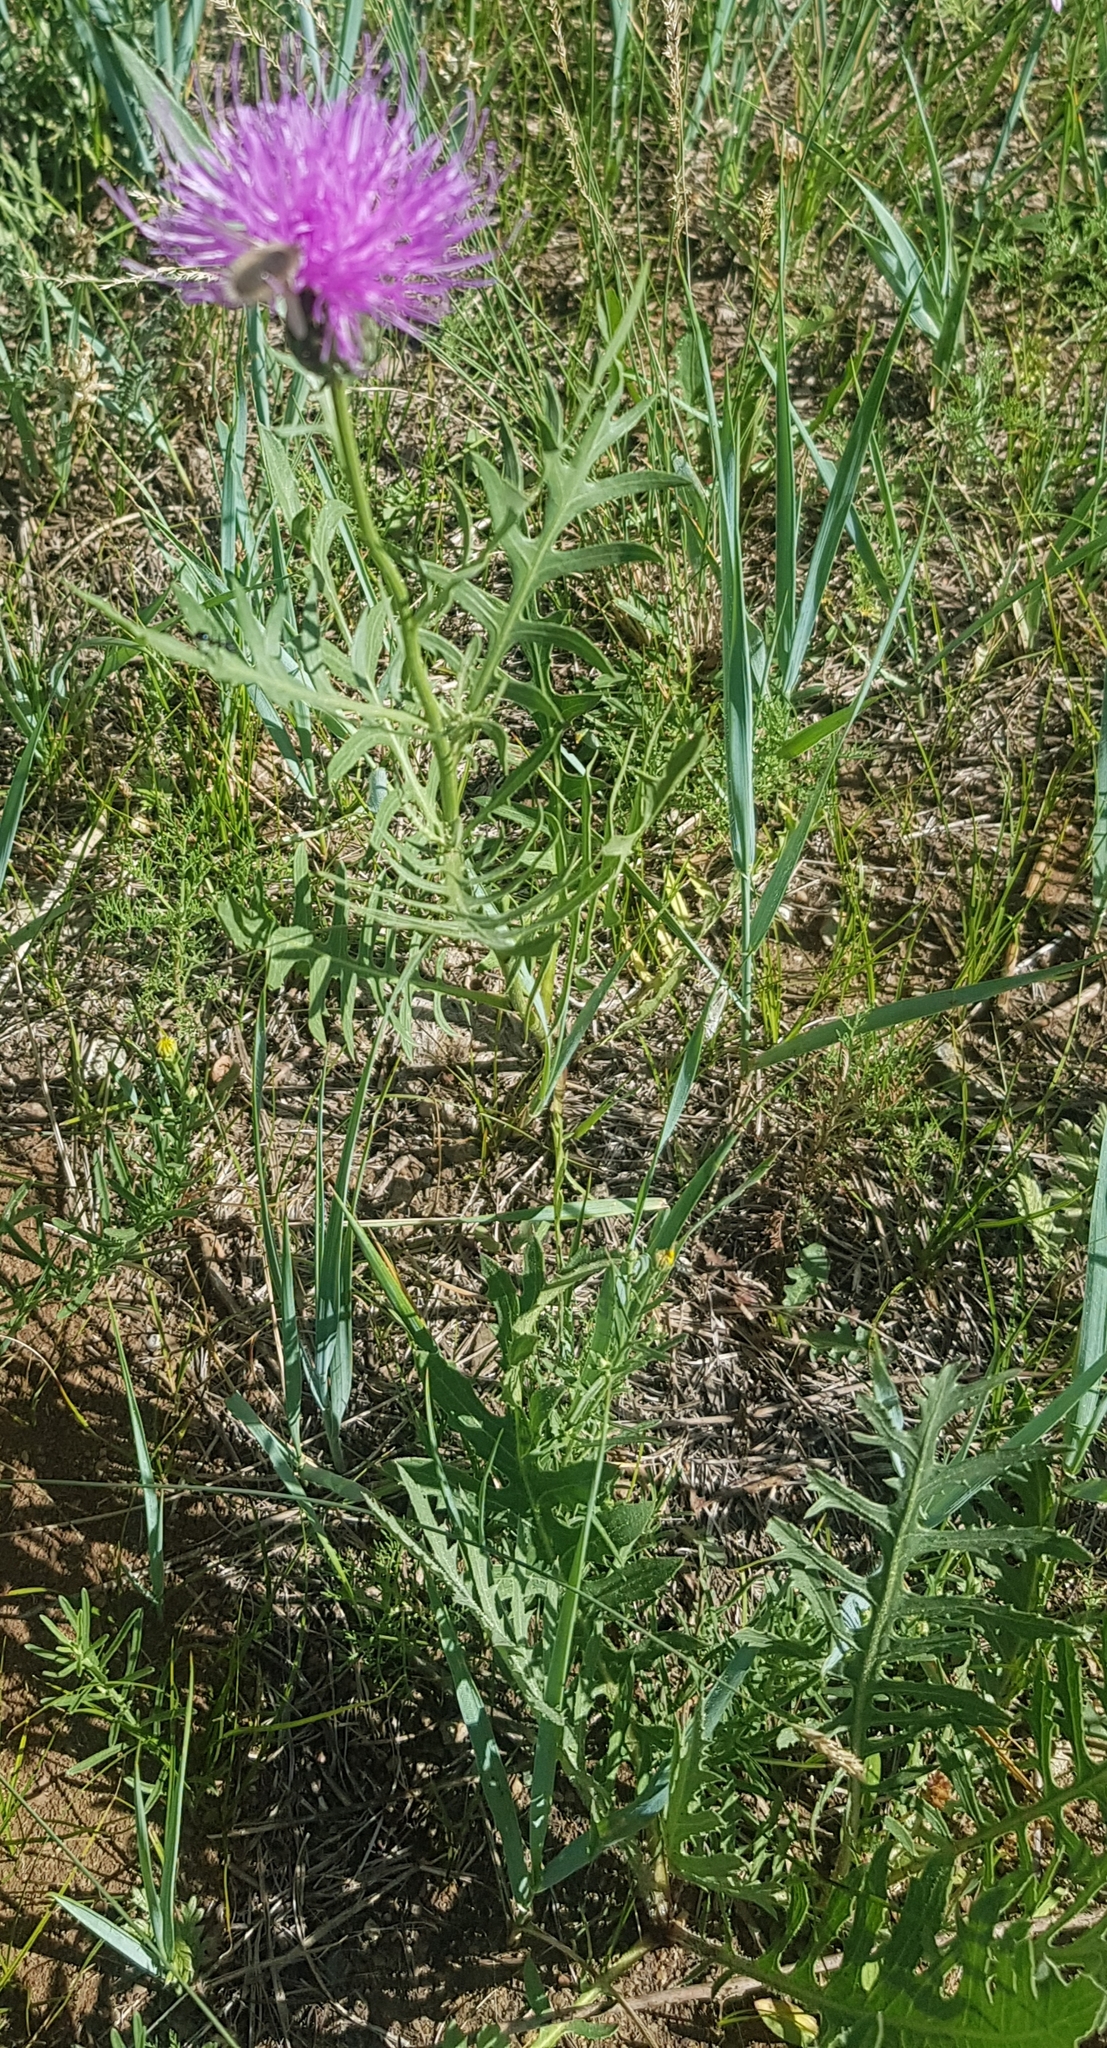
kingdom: Plantae
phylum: Tracheophyta
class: Magnoliopsida
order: Asterales
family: Asteraceae
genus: Klasea
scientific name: Klasea centauroides
